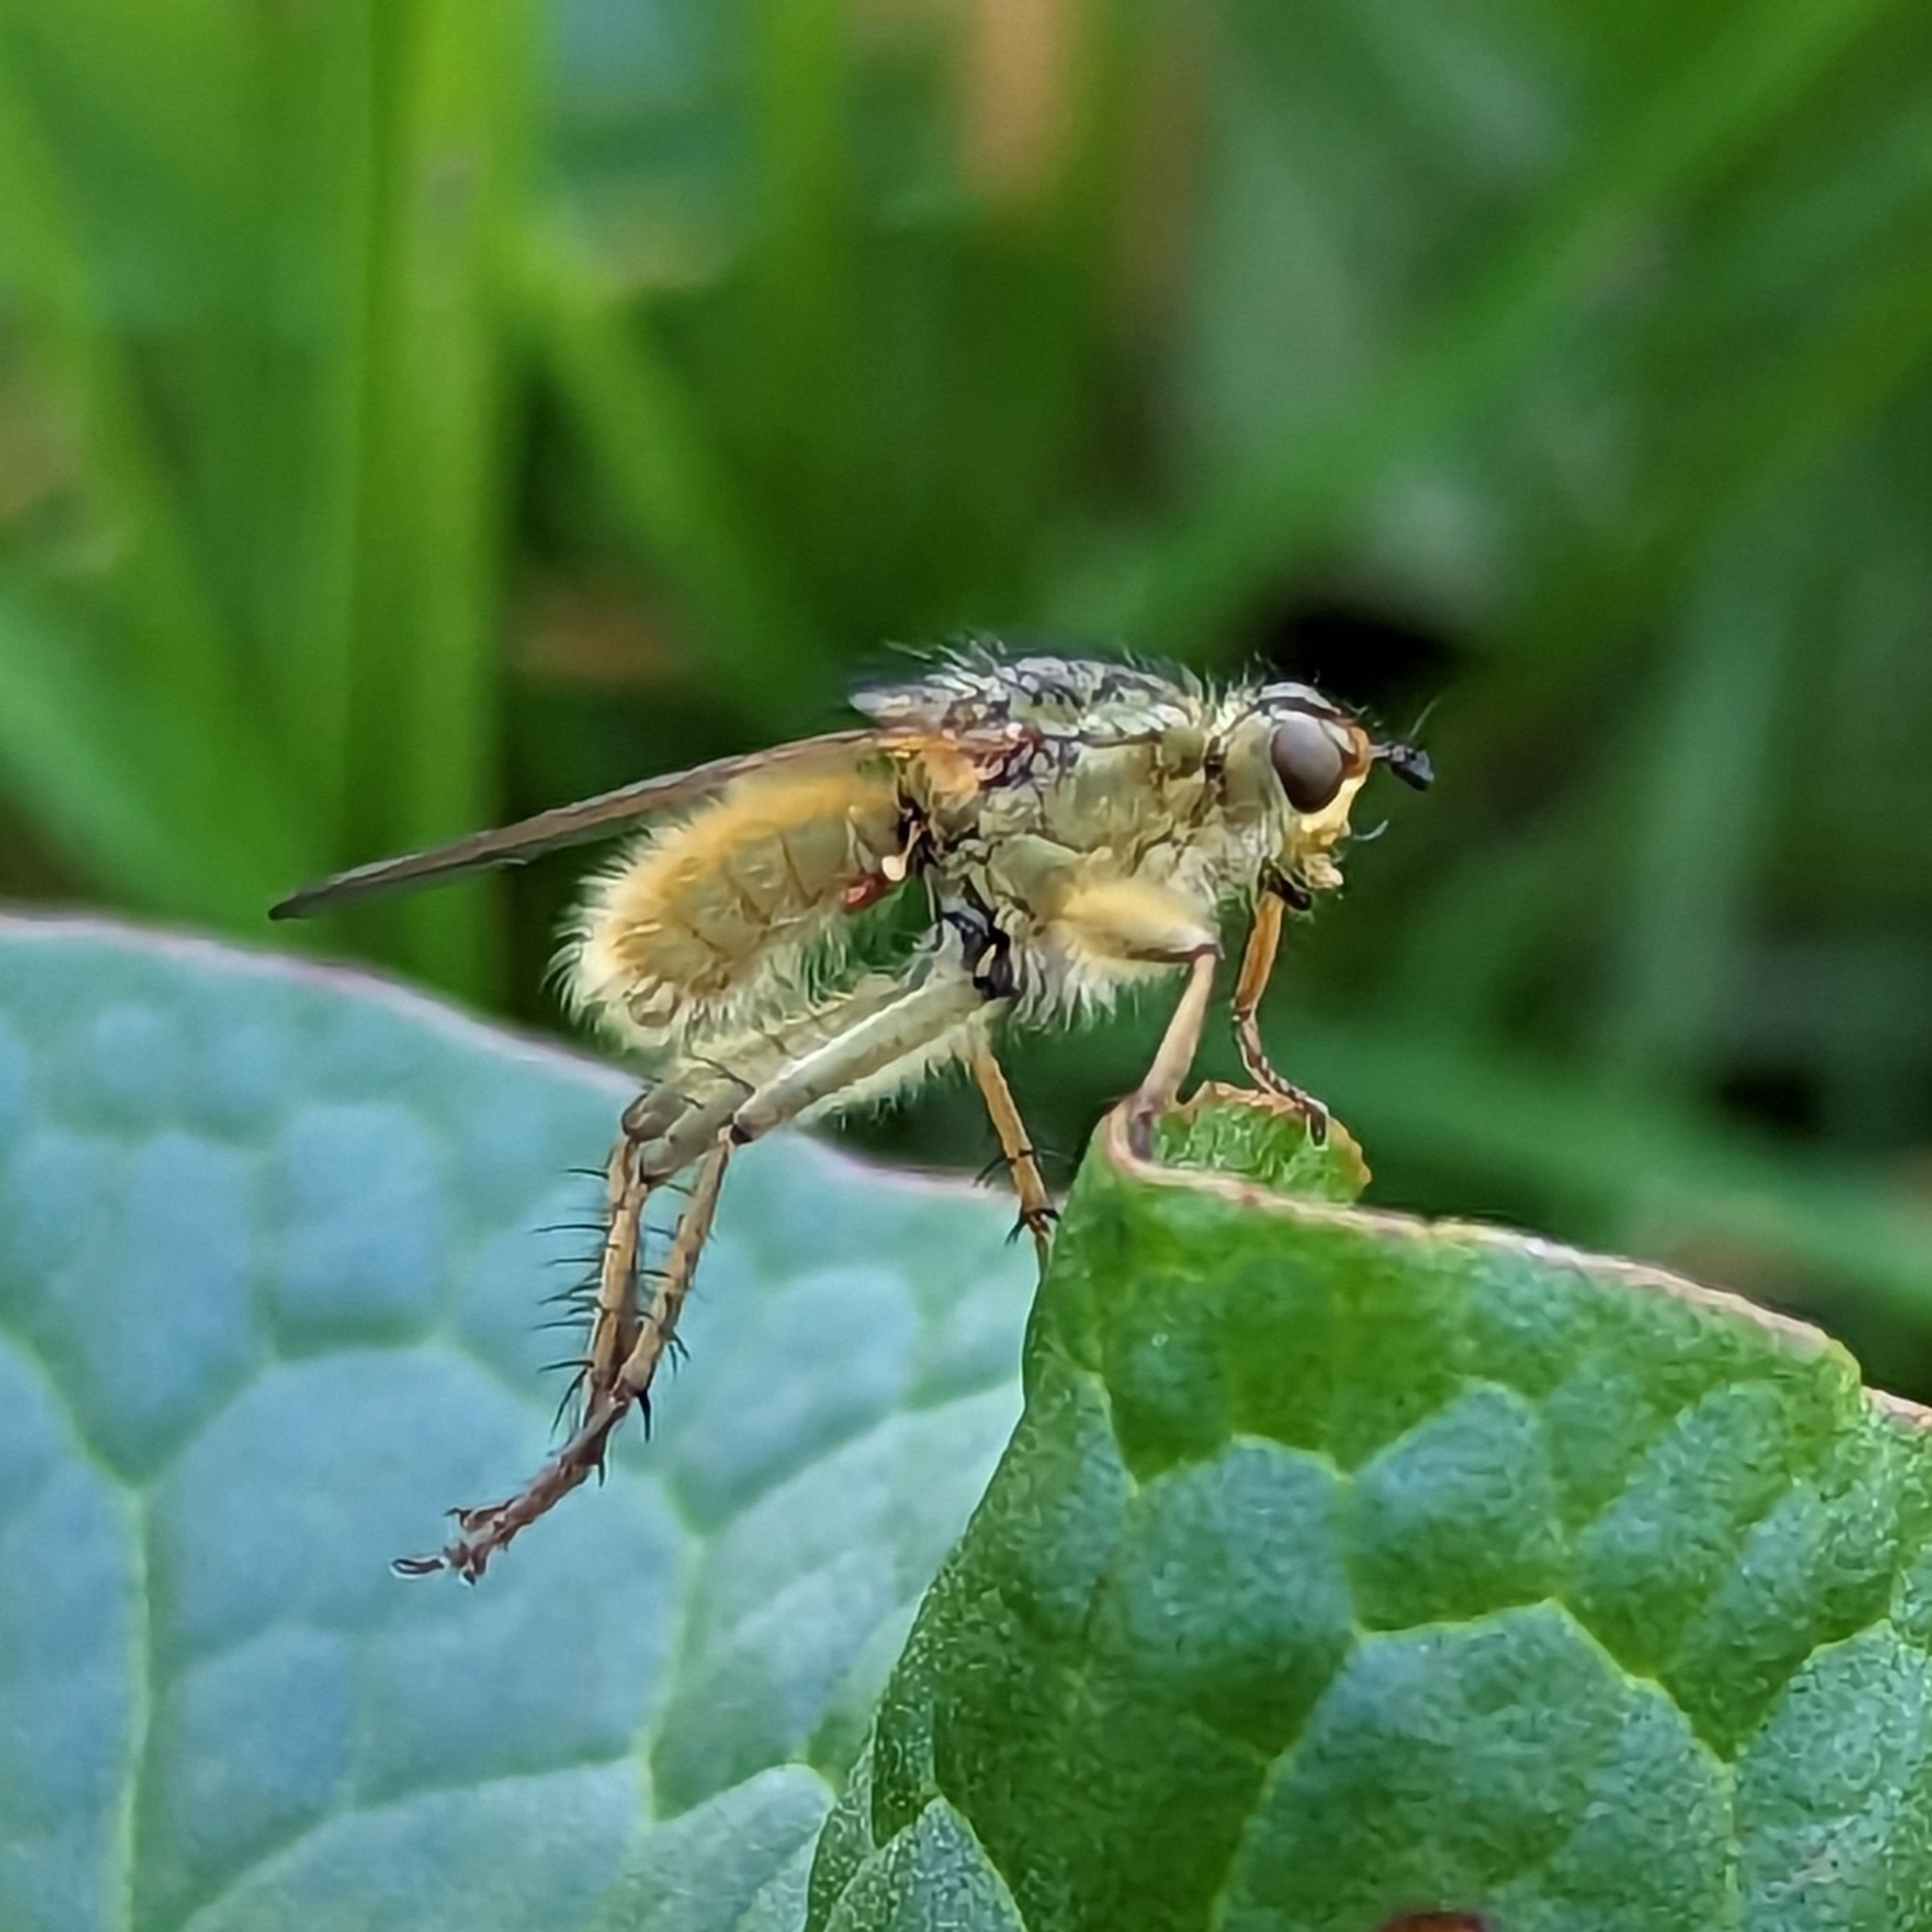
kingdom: Animalia
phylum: Arthropoda
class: Insecta
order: Diptera
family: Scathophagidae
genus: Scathophaga
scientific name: Scathophaga stercoraria
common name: Yellow dung fly
